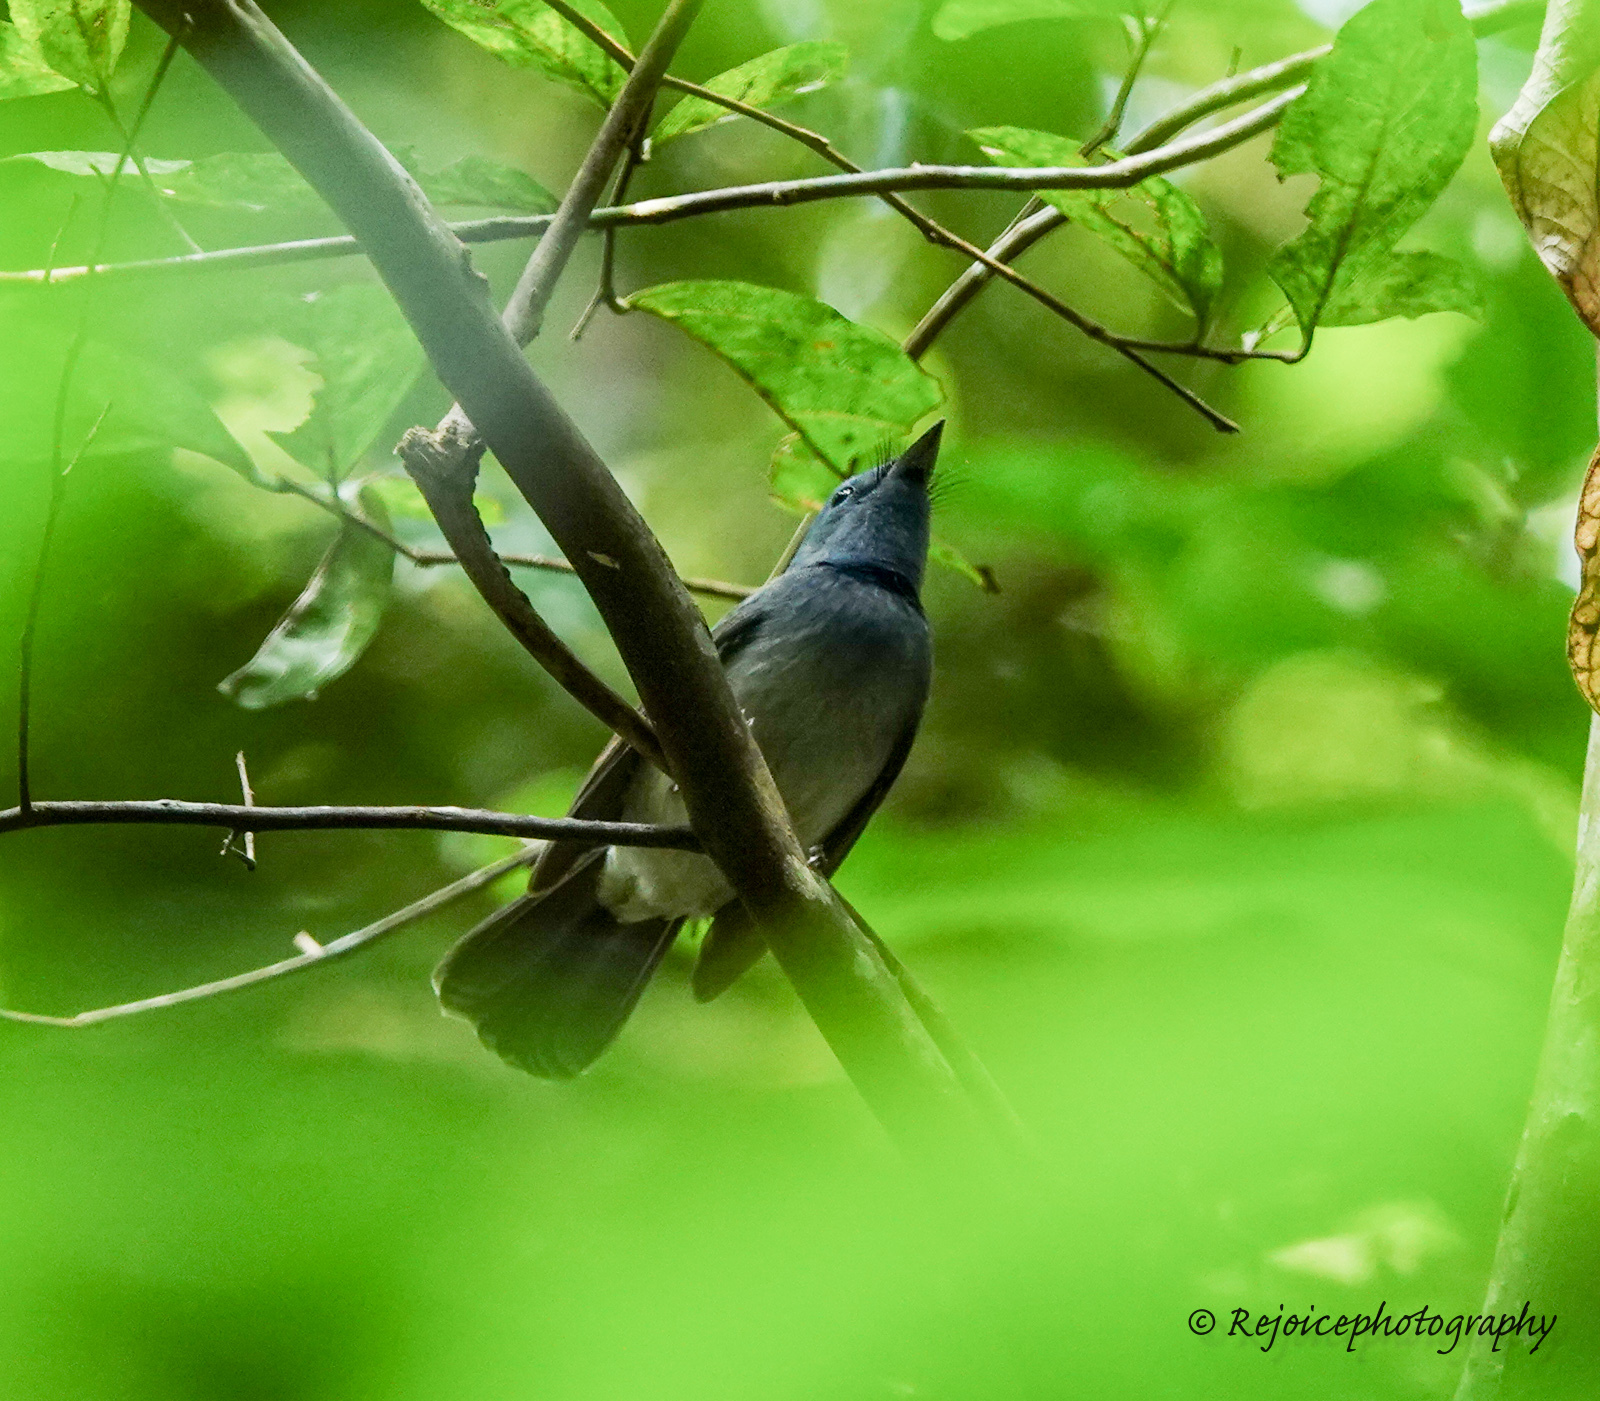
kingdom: Animalia
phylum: Chordata
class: Aves
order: Passeriformes
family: Monarchidae
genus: Hypothymis
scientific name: Hypothymis azurea
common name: Black-naped monarch
